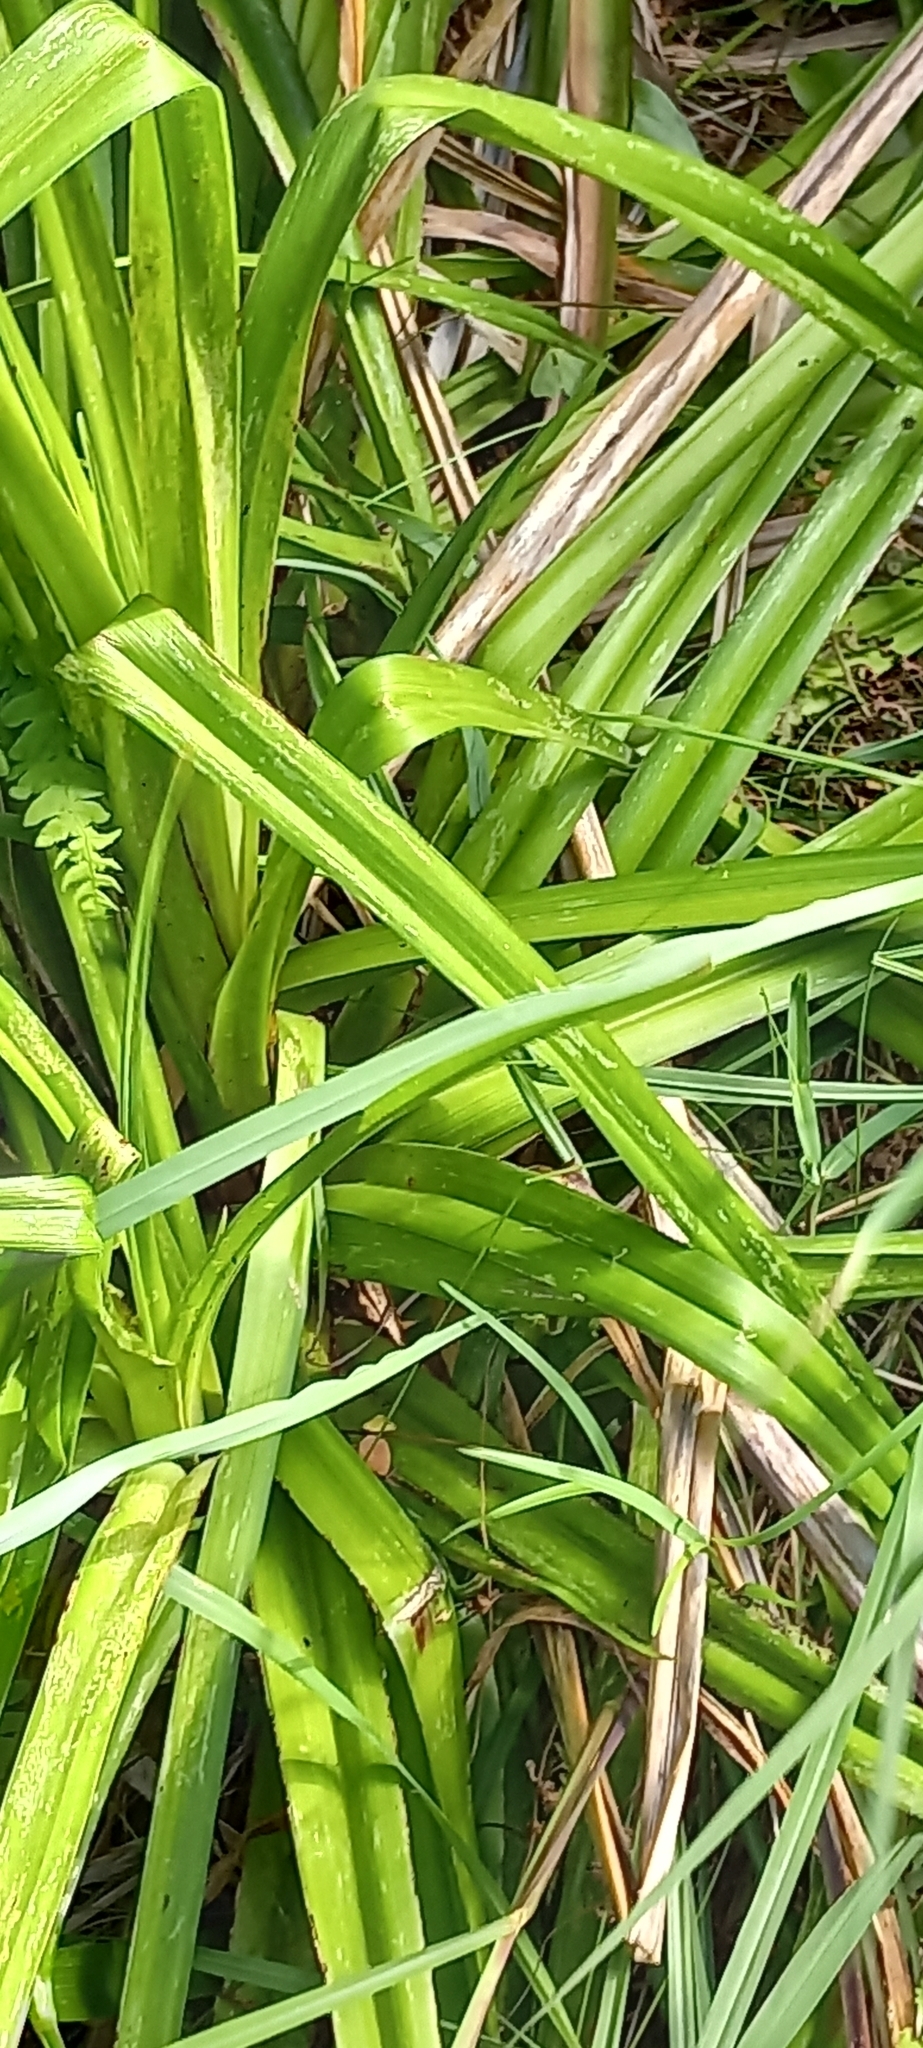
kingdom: Plantae
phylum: Tracheophyta
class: Liliopsida
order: Asparagales
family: Asphodelaceae
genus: Kniphofia
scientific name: Kniphofia uvaria
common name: Red-hot-poker
